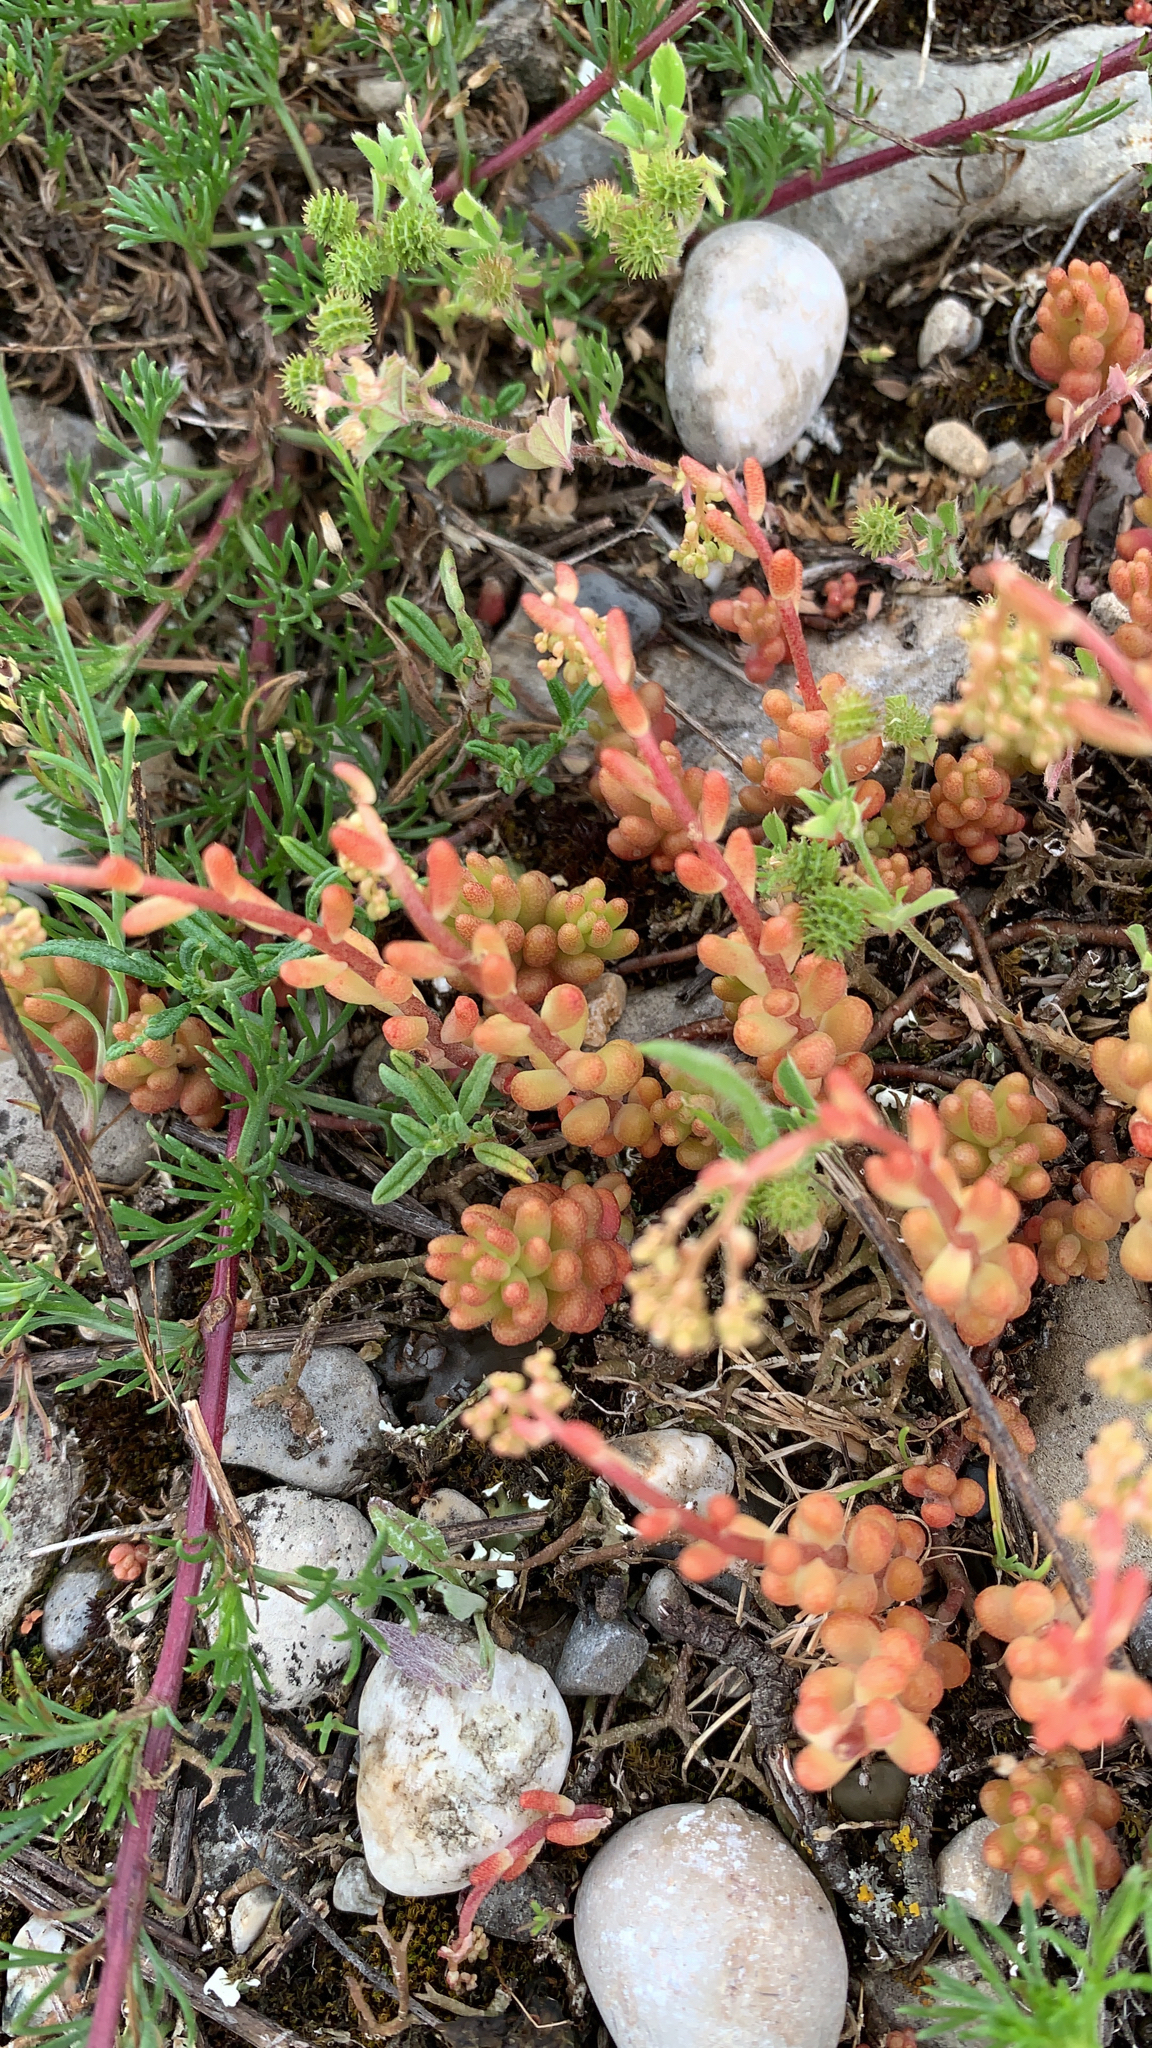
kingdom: Plantae
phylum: Tracheophyta
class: Magnoliopsida
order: Saxifragales
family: Crassulaceae
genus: Sedum
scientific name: Sedum album
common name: White stonecrop
